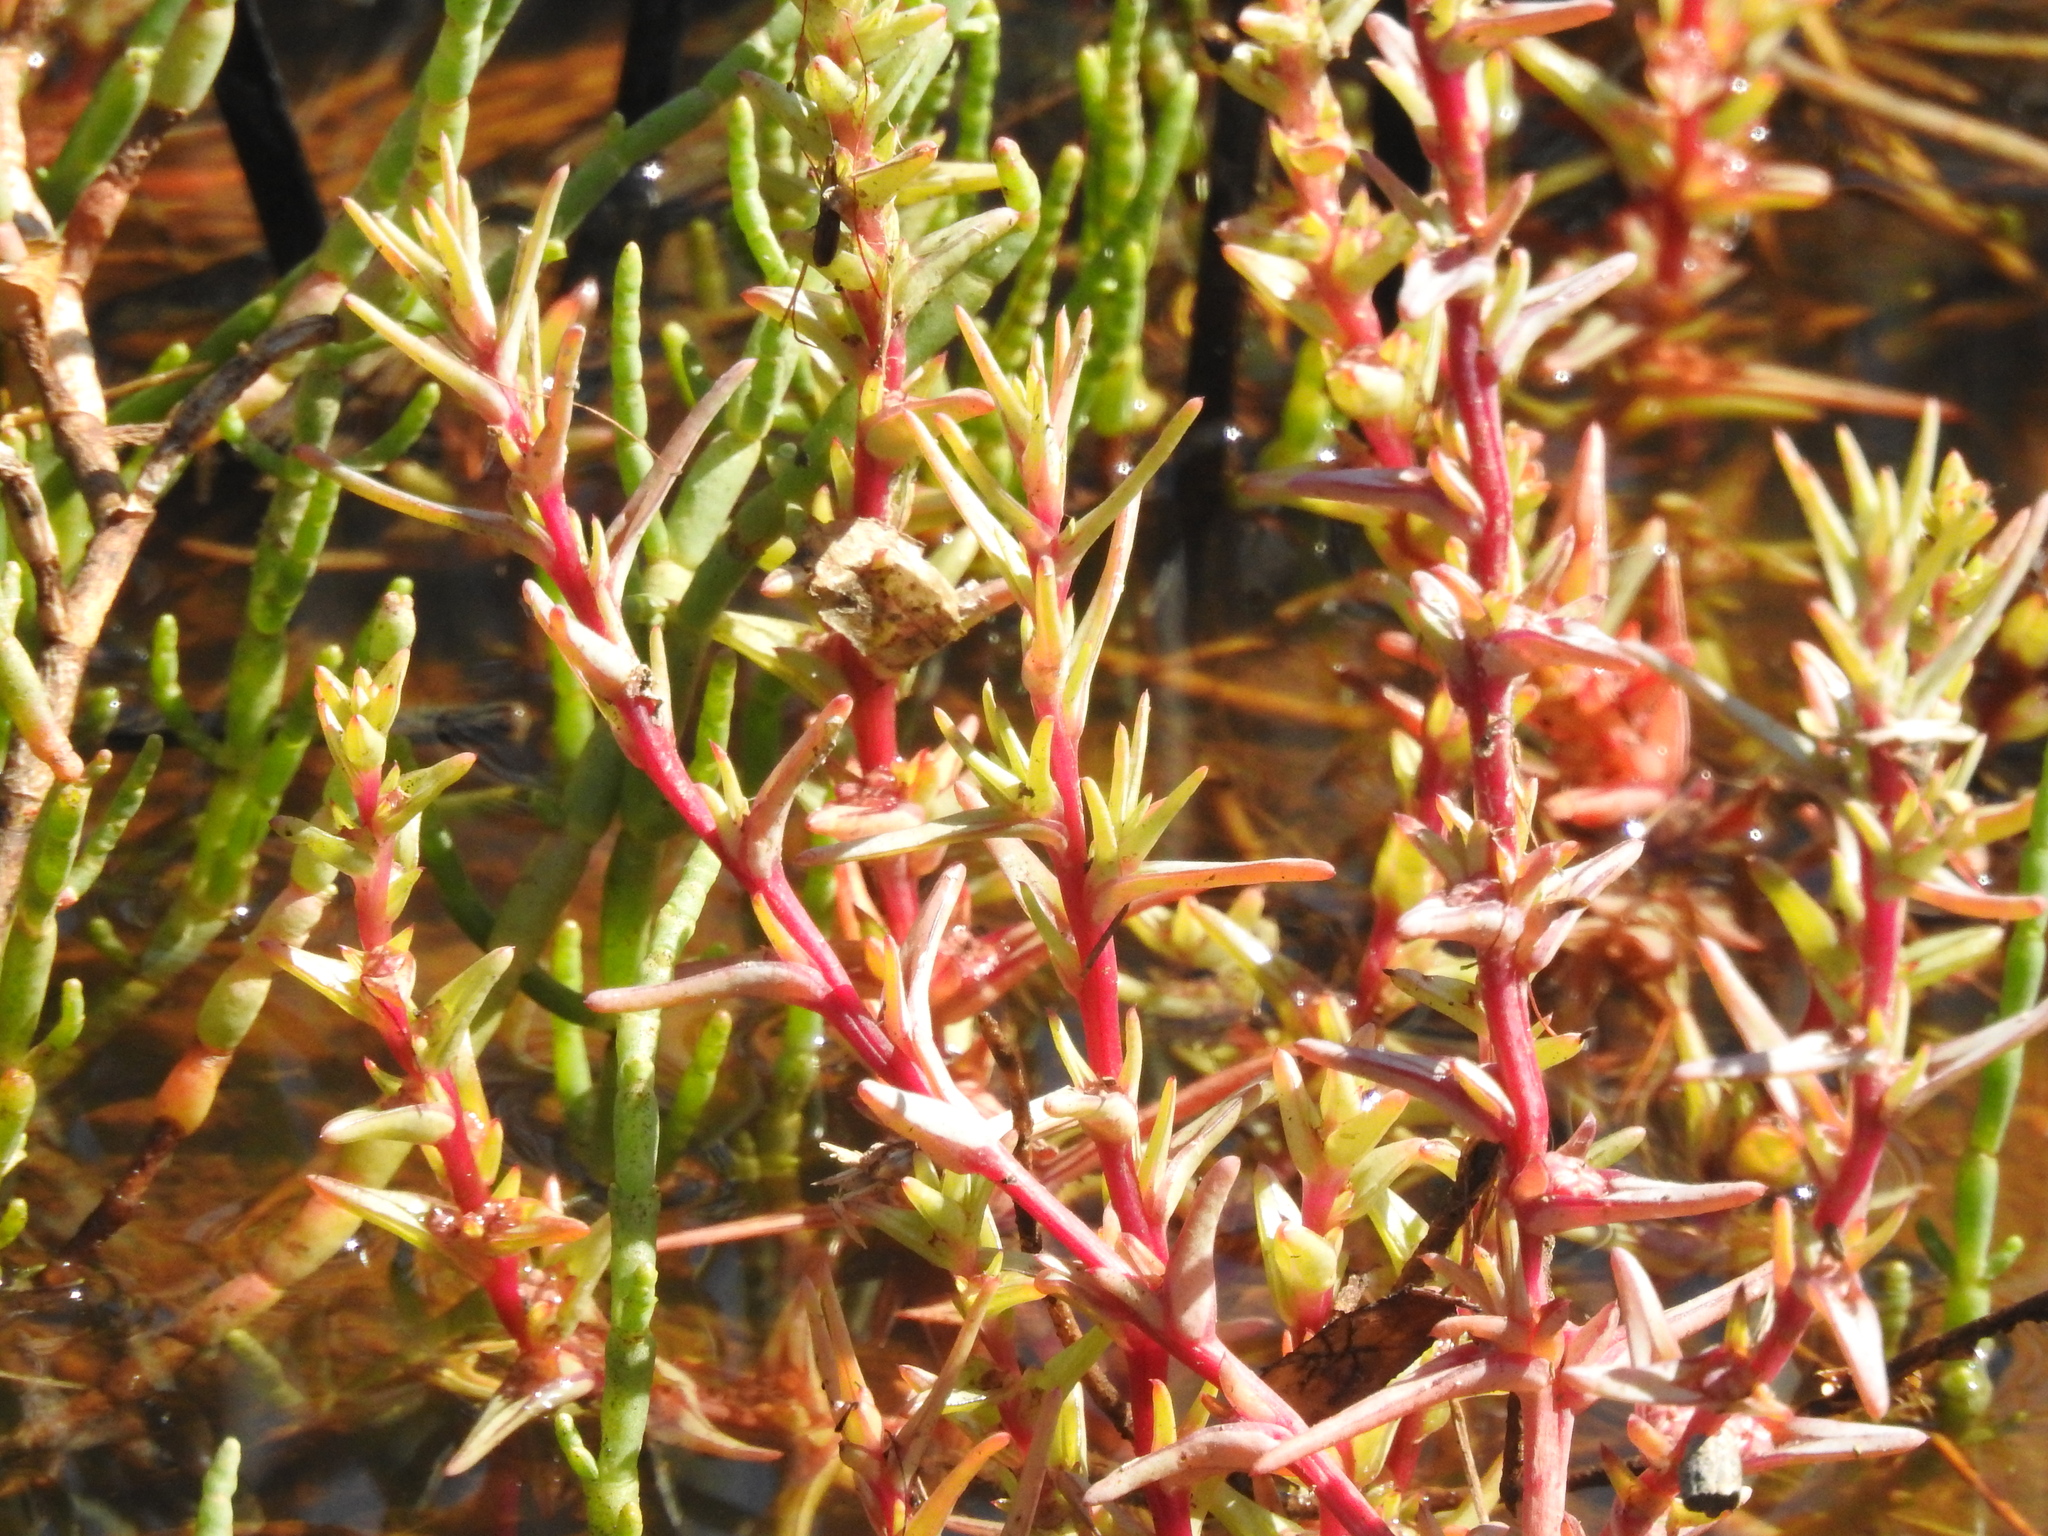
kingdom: Plantae
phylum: Tracheophyta
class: Magnoliopsida
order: Caryophyllales
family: Amaranthaceae
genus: Salsola
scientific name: Salsola soda
